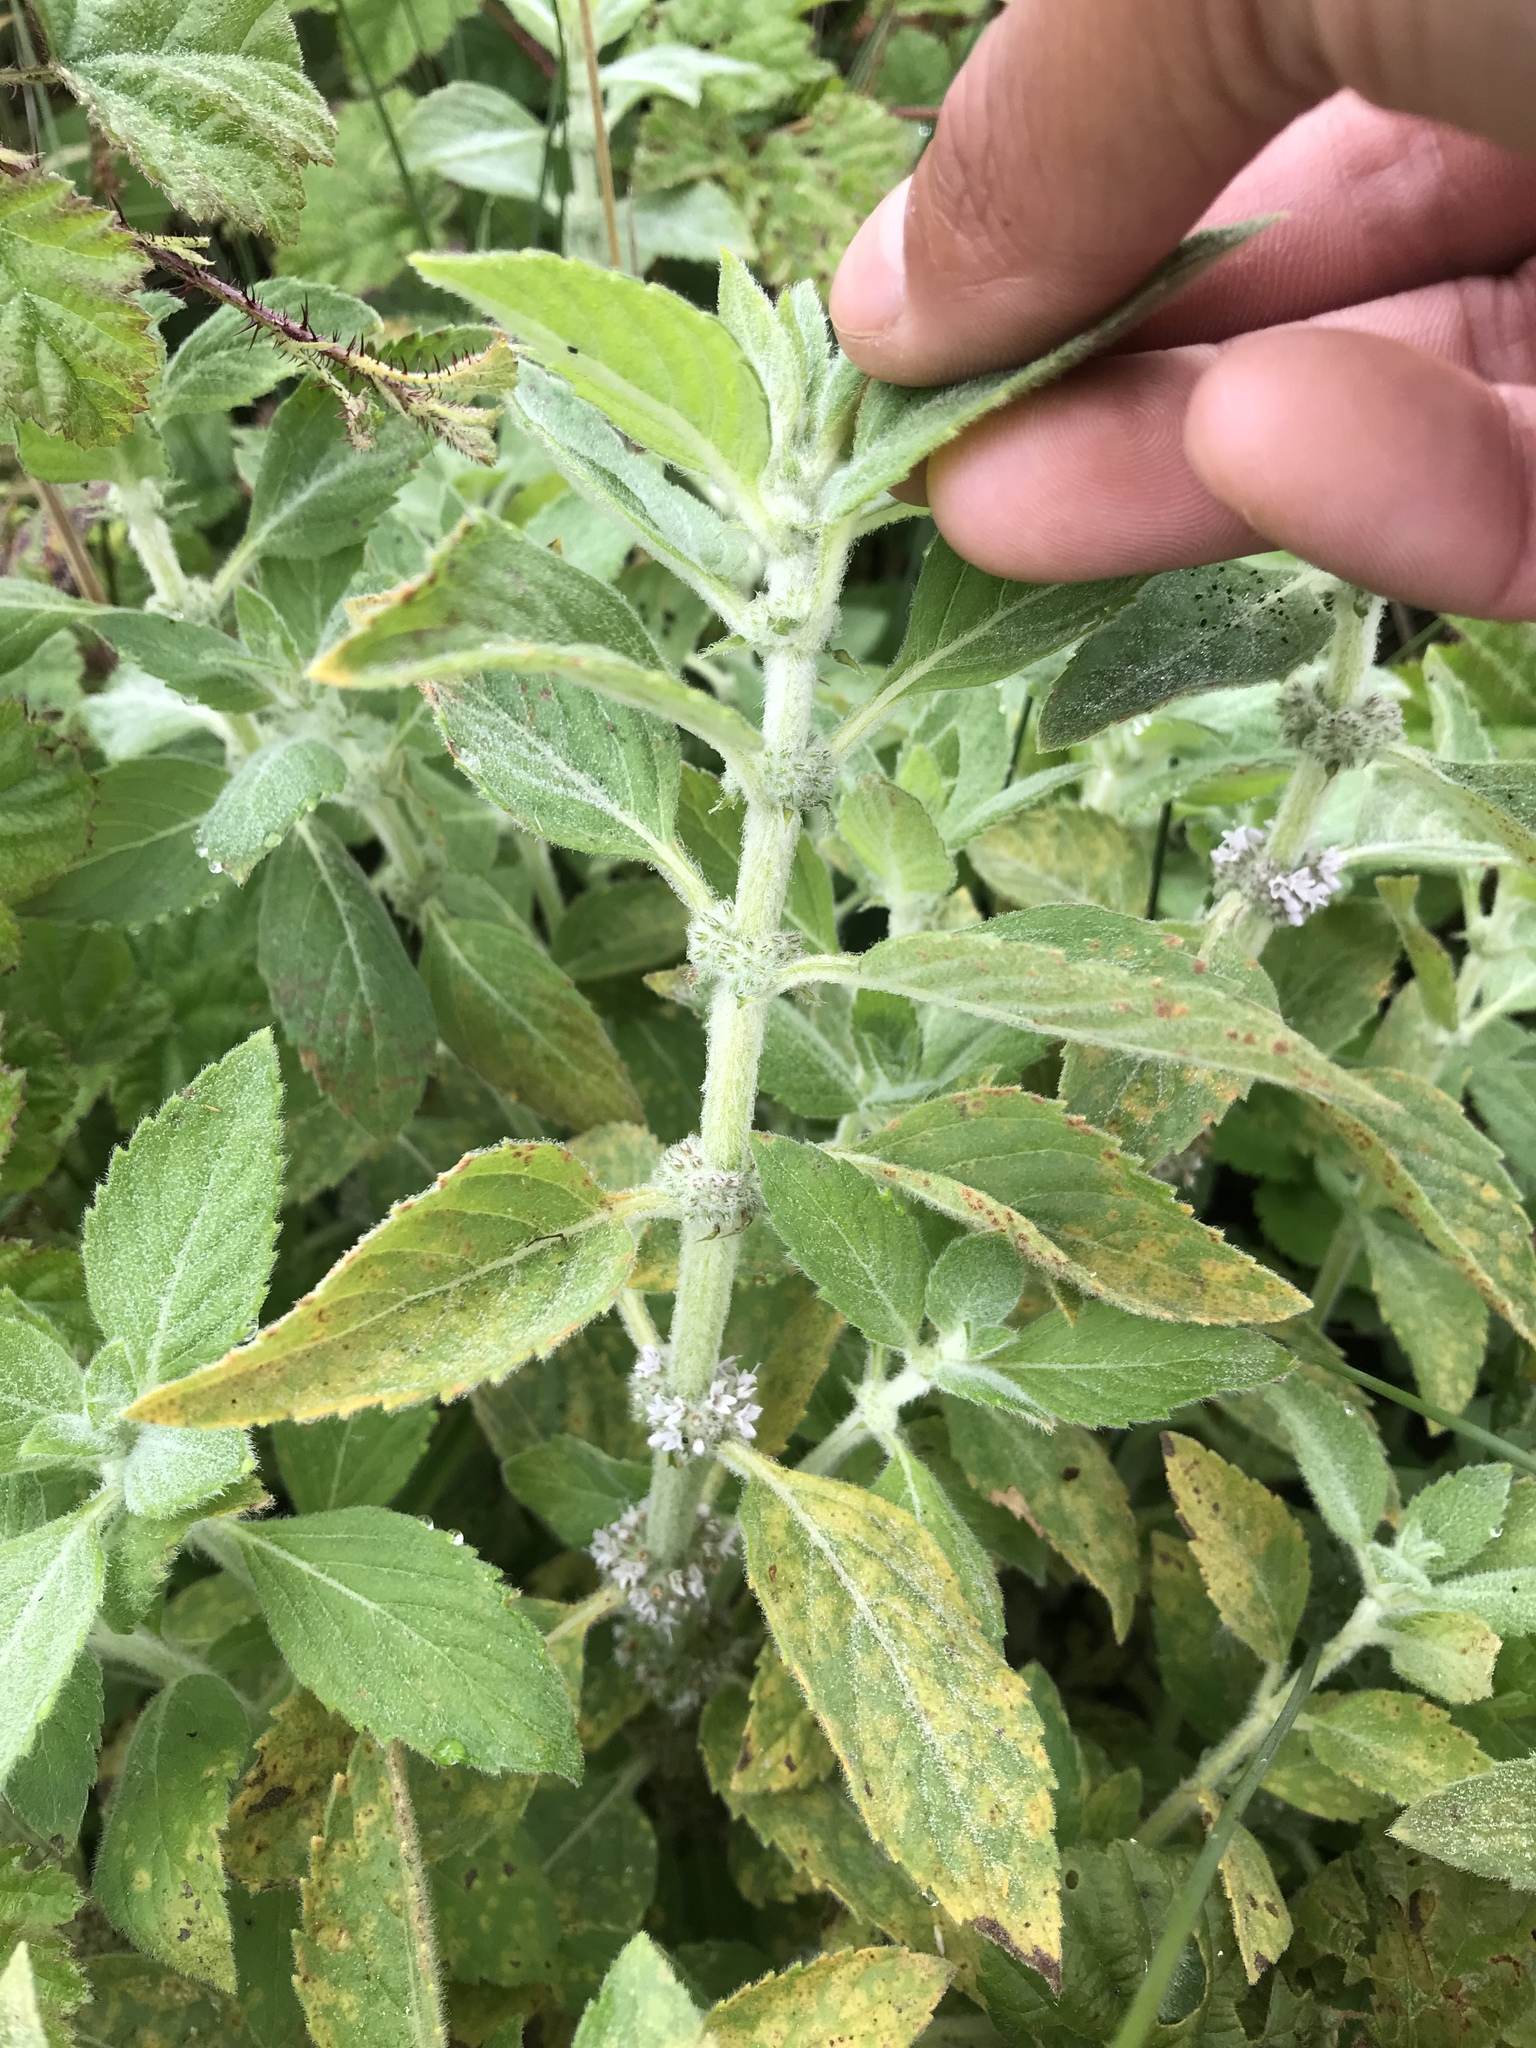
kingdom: Plantae
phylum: Tracheophyta
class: Magnoliopsida
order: Lamiales
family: Lamiaceae
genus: Mentha
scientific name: Mentha canadensis
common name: American corn mint
